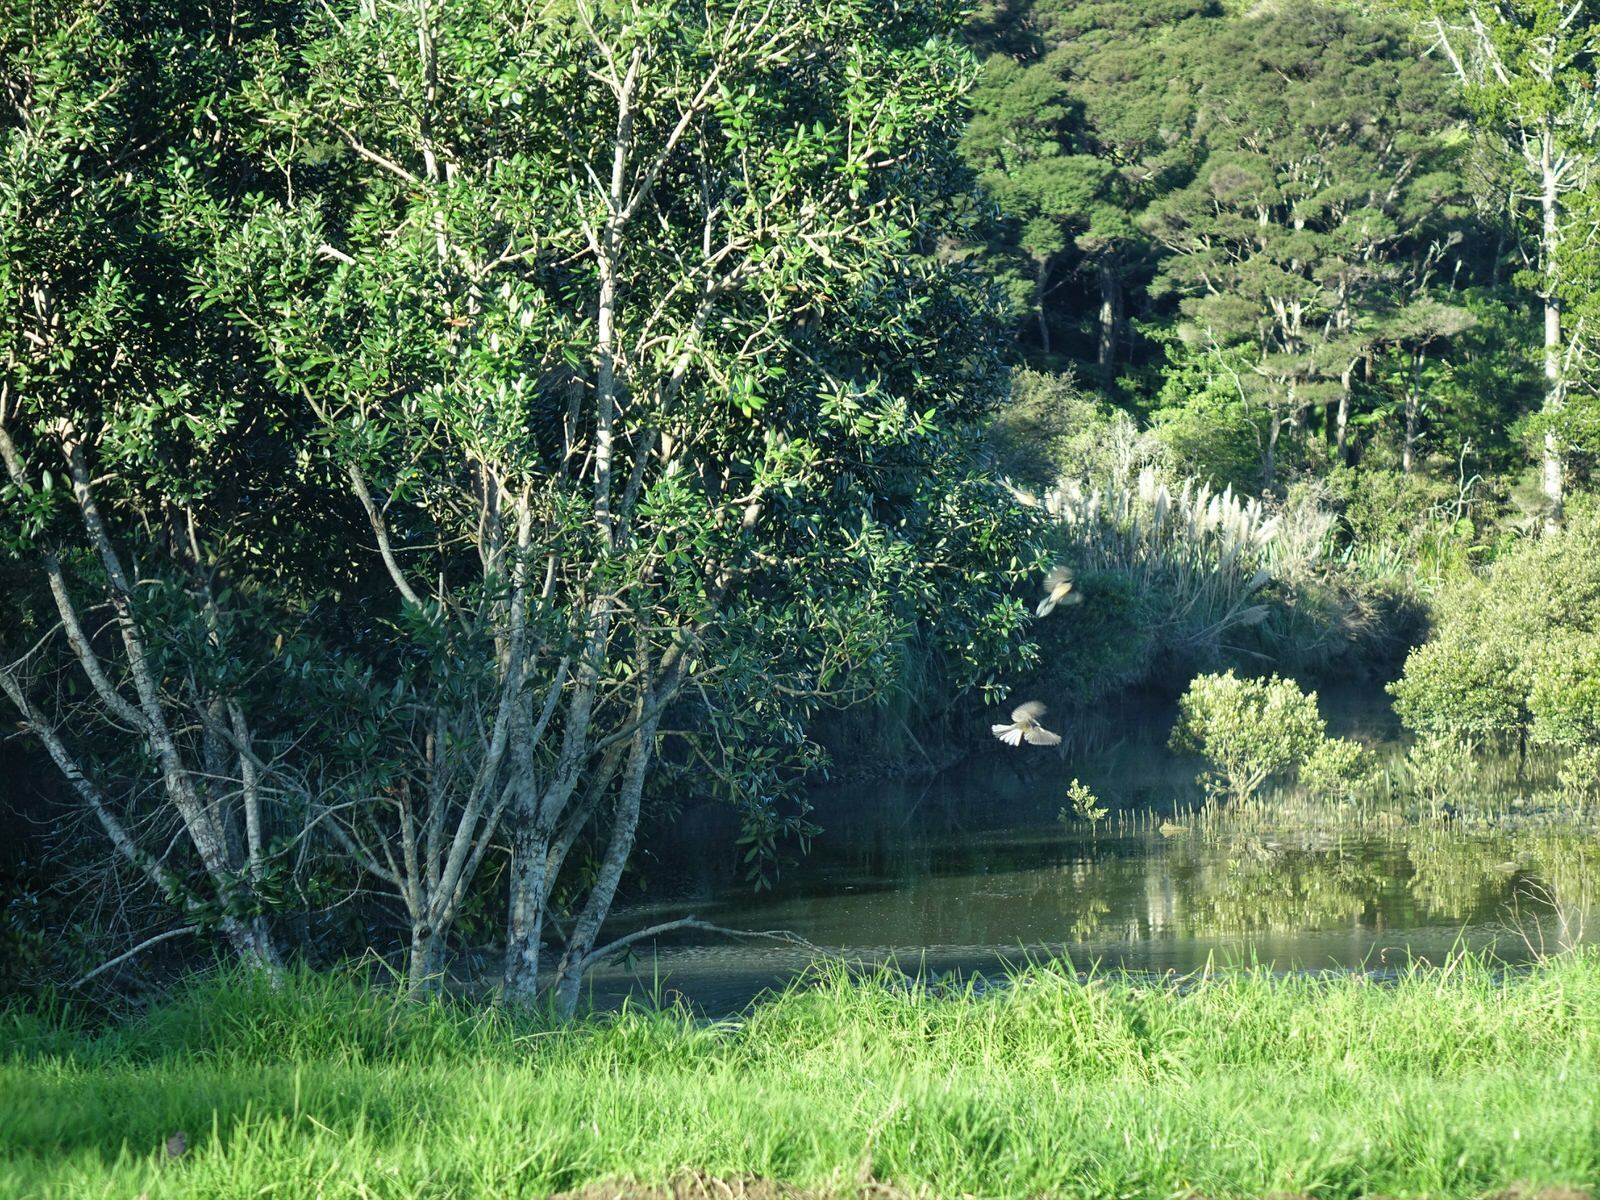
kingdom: Animalia
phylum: Chordata
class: Aves
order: Passeriformes
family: Rhipiduridae
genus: Rhipidura
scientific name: Rhipidura fuliginosa
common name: New zealand fantail
